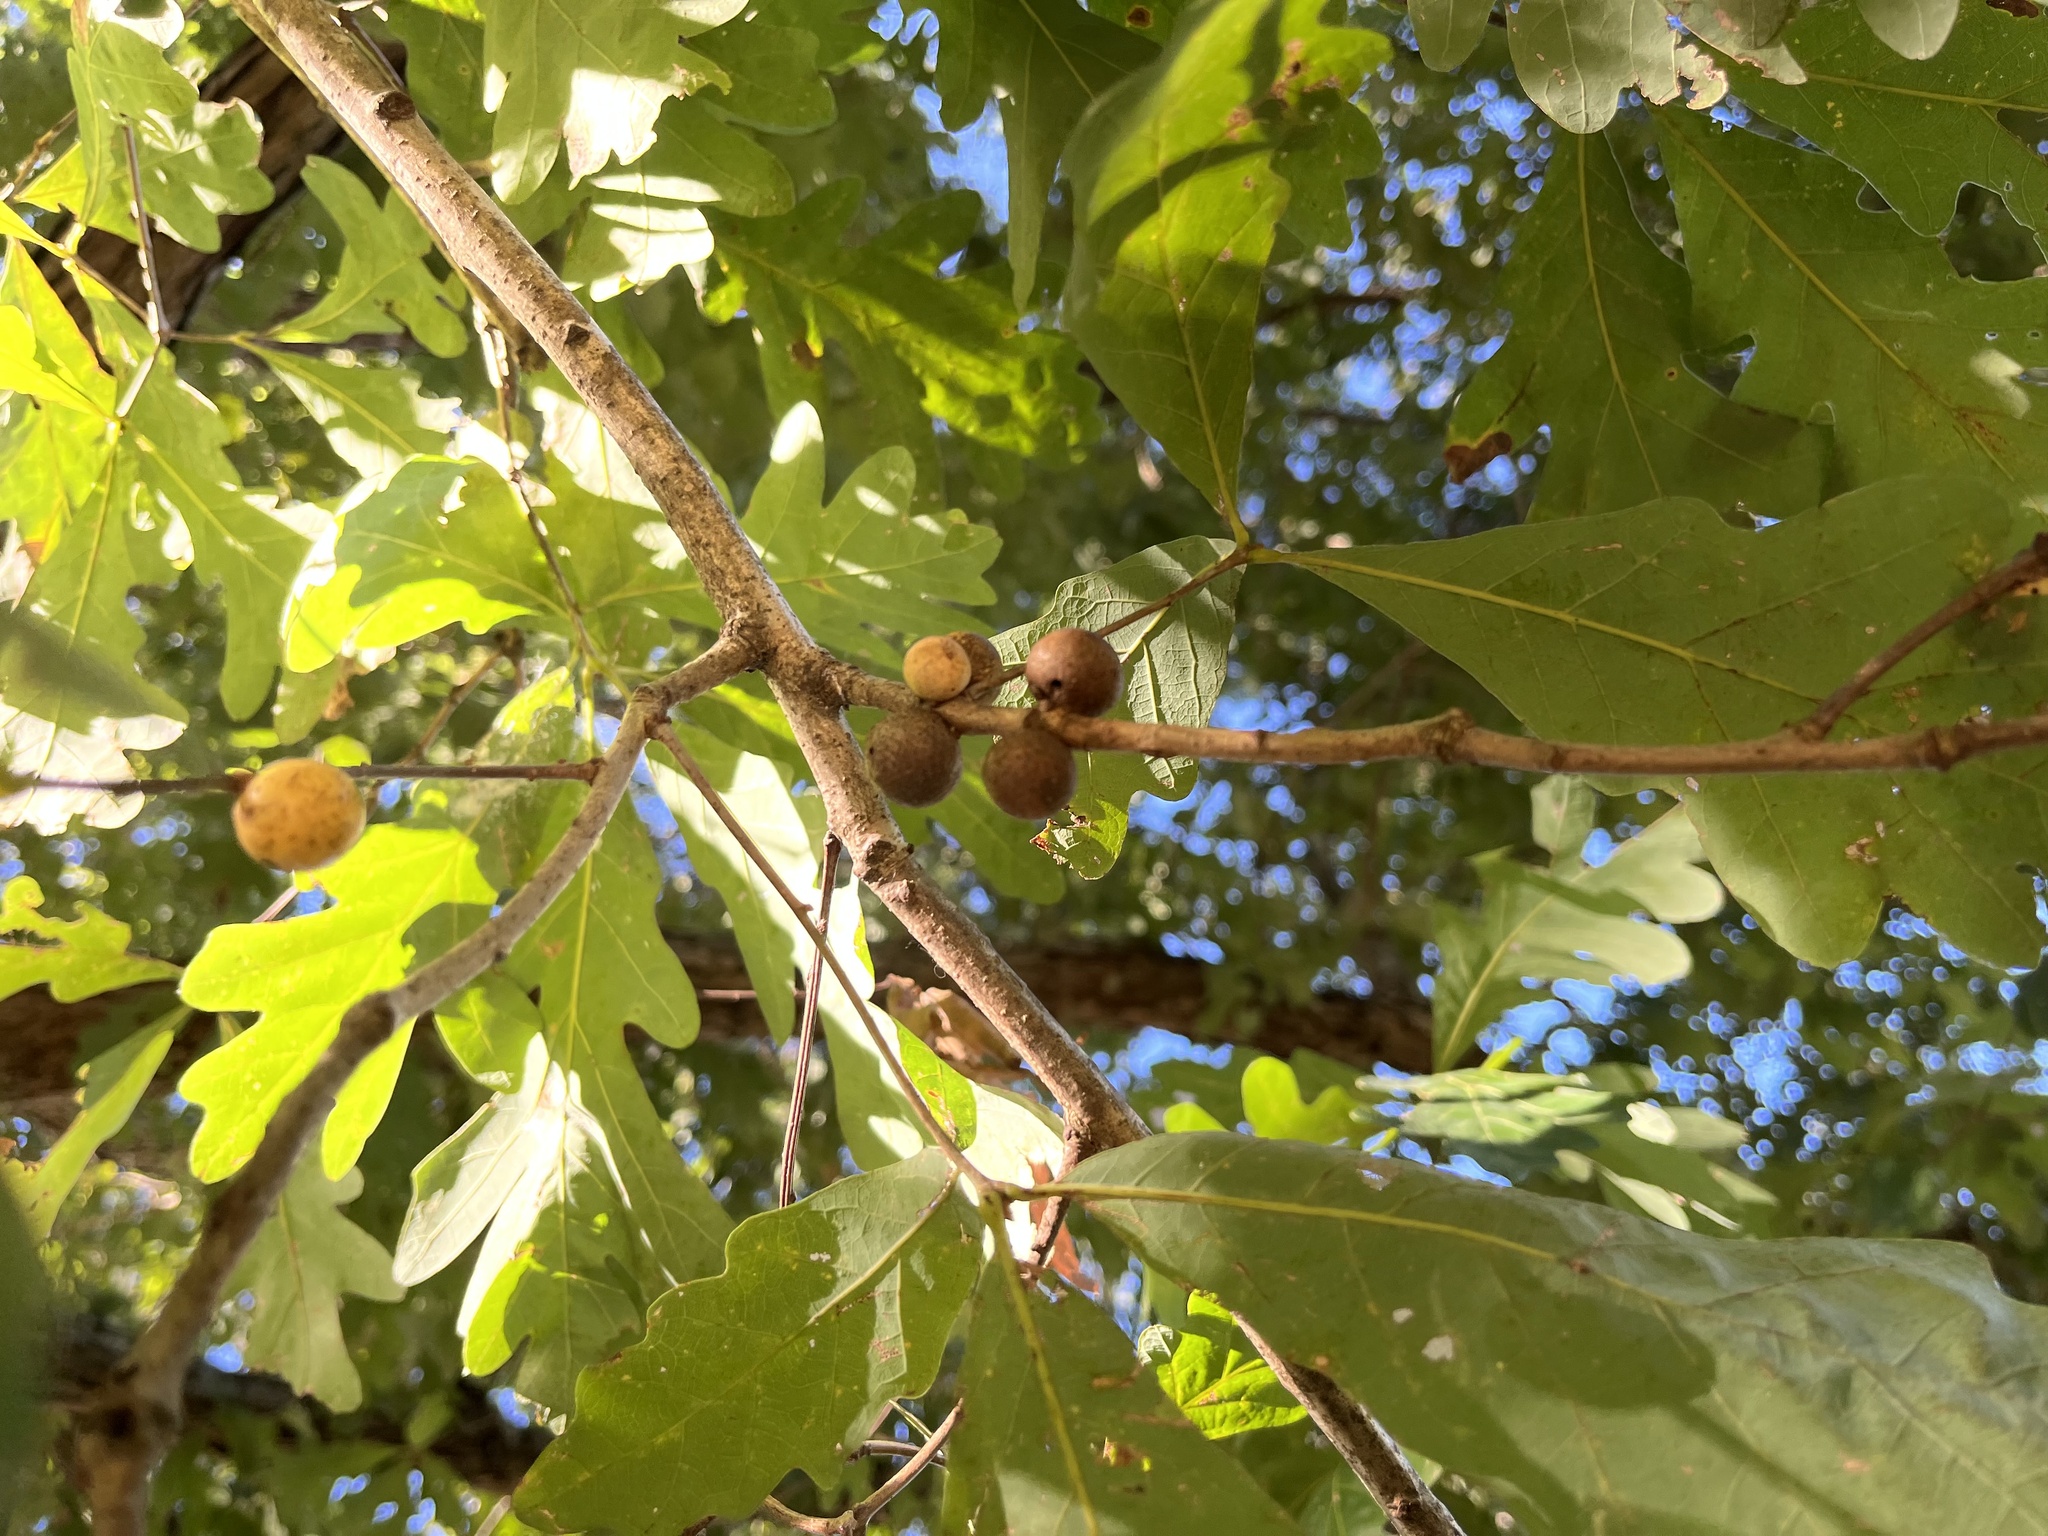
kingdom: Animalia
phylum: Arthropoda
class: Insecta
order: Hymenoptera
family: Cynipidae
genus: Disholcaspis
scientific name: Disholcaspis quercusglobulus
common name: Round bullet gall wasp
